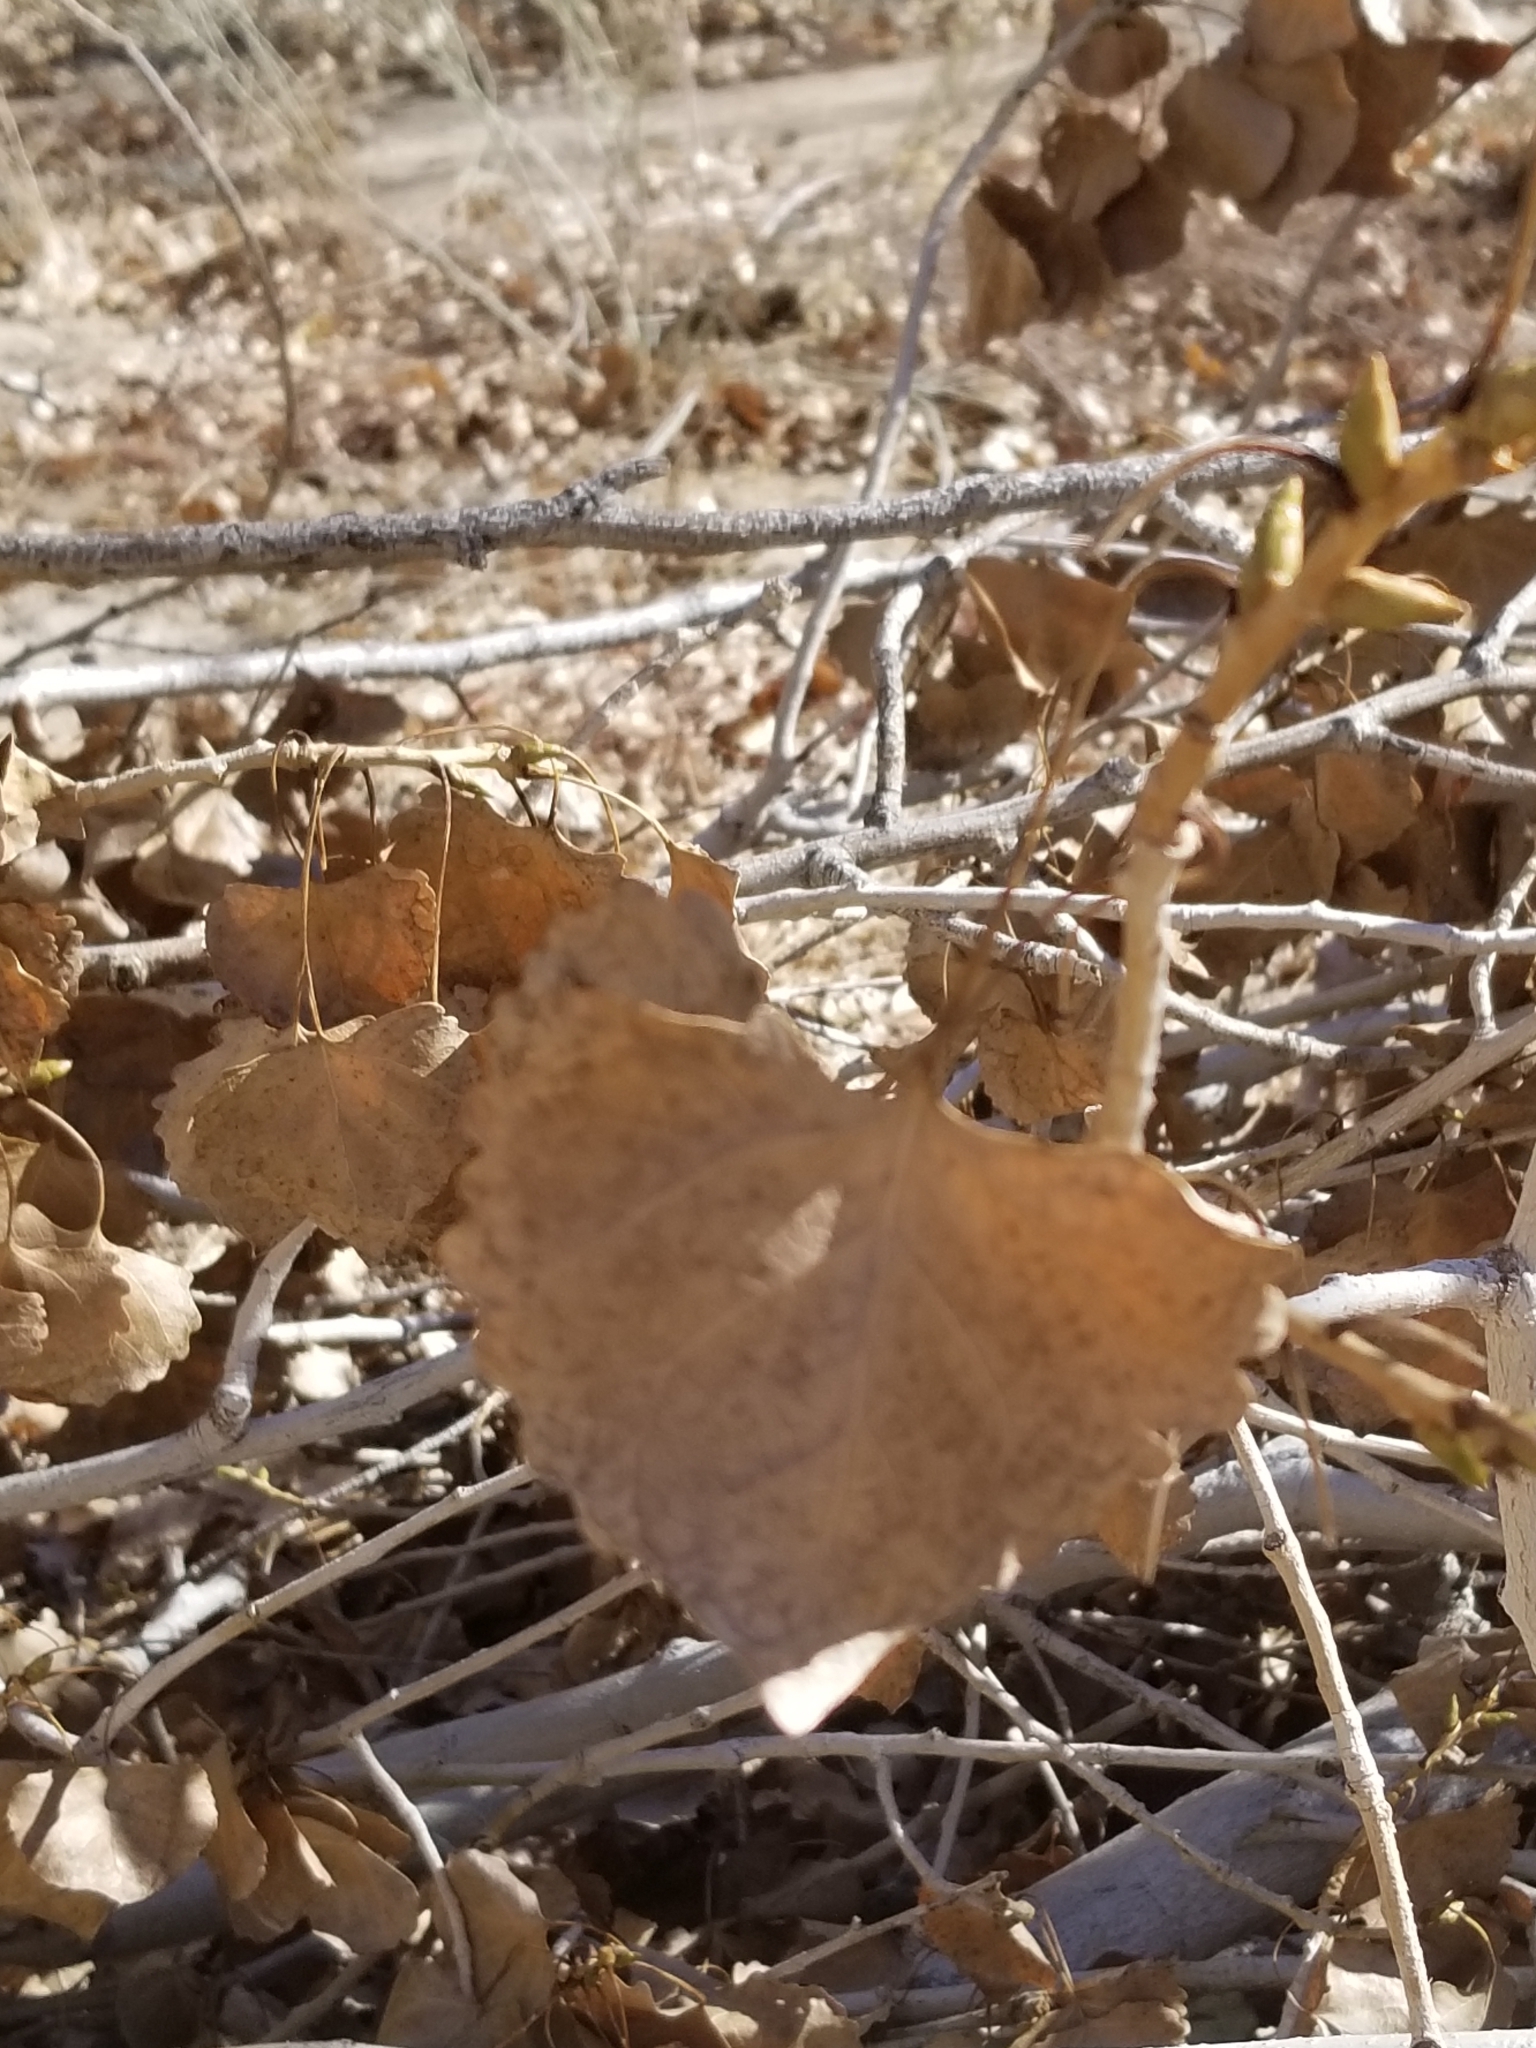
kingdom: Plantae
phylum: Tracheophyta
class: Magnoliopsida
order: Malpighiales
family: Salicaceae
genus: Populus
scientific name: Populus fremontii
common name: Fremont's cottonwood
